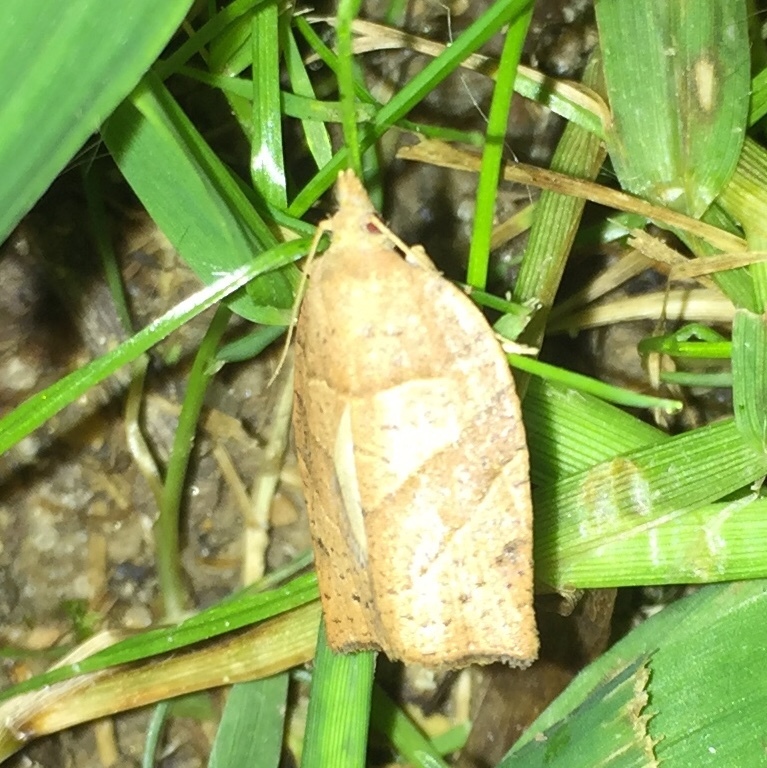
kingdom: Animalia
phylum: Arthropoda
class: Insecta
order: Lepidoptera
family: Tortricidae
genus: Pandemis
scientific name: Pandemis lamprosana
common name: Woodgrain leafroller moth
